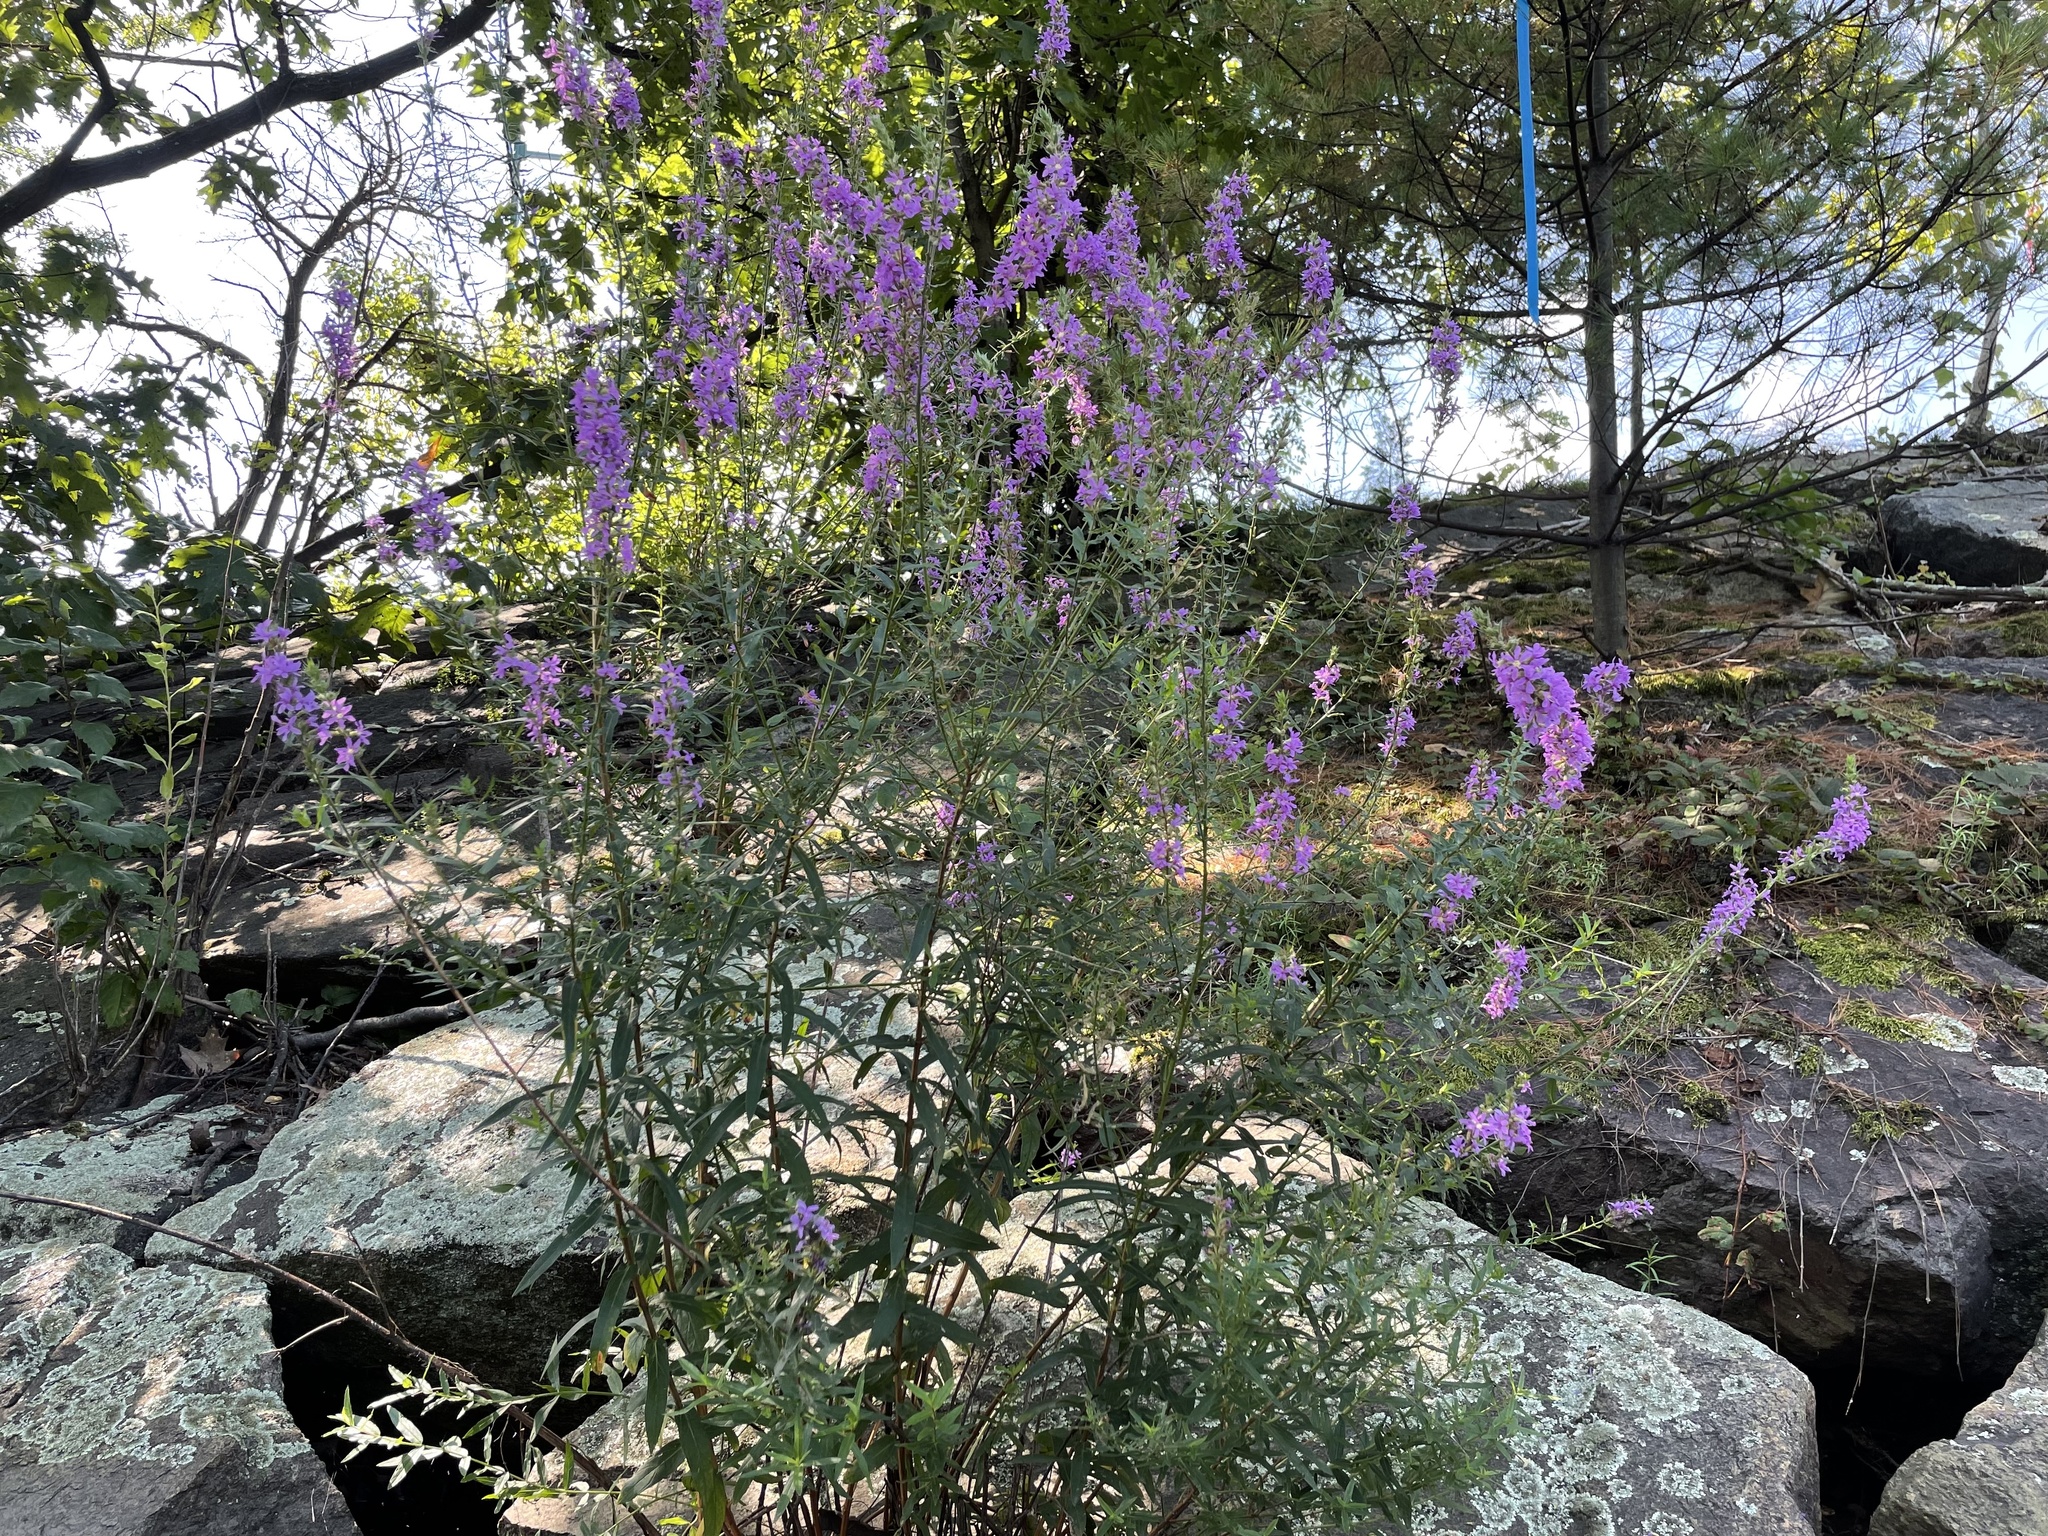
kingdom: Plantae
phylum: Tracheophyta
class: Magnoliopsida
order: Myrtales
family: Lythraceae
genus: Lythrum
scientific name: Lythrum salicaria
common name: Purple loosestrife
